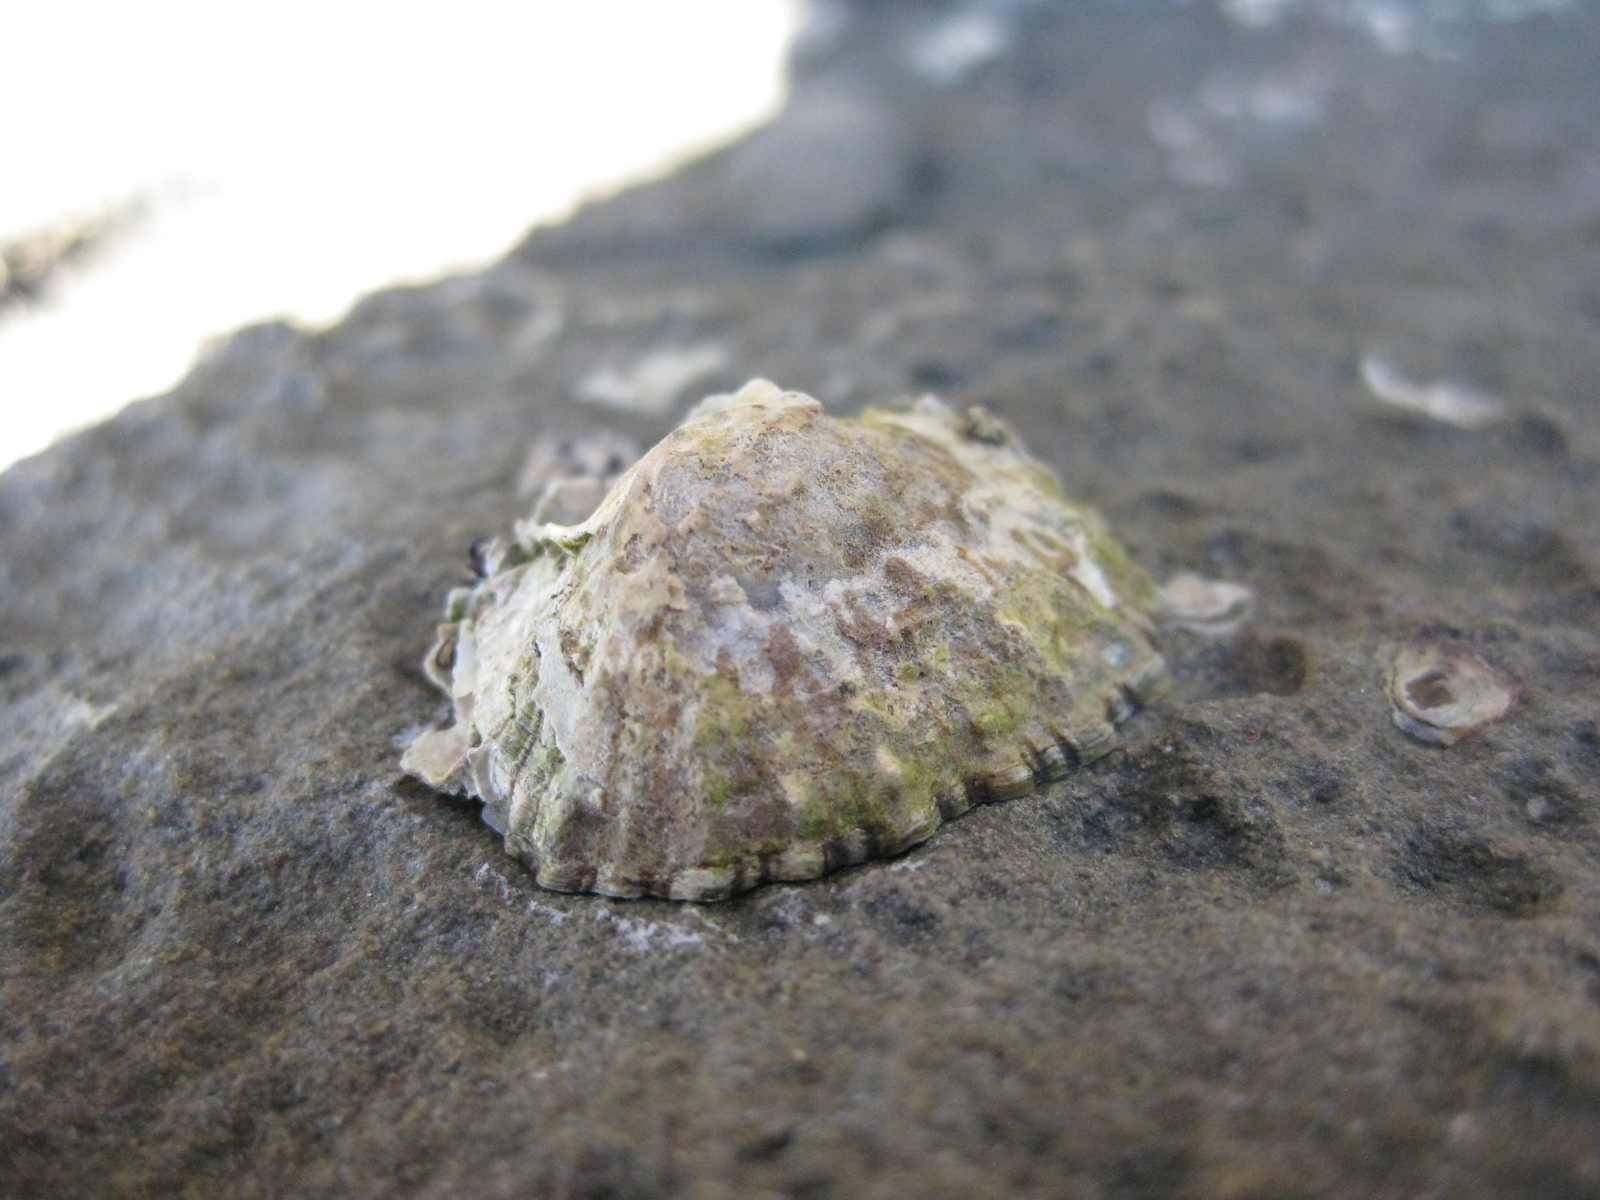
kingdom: Animalia
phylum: Mollusca
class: Gastropoda
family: Nacellidae
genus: Cellana
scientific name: Cellana ornata
